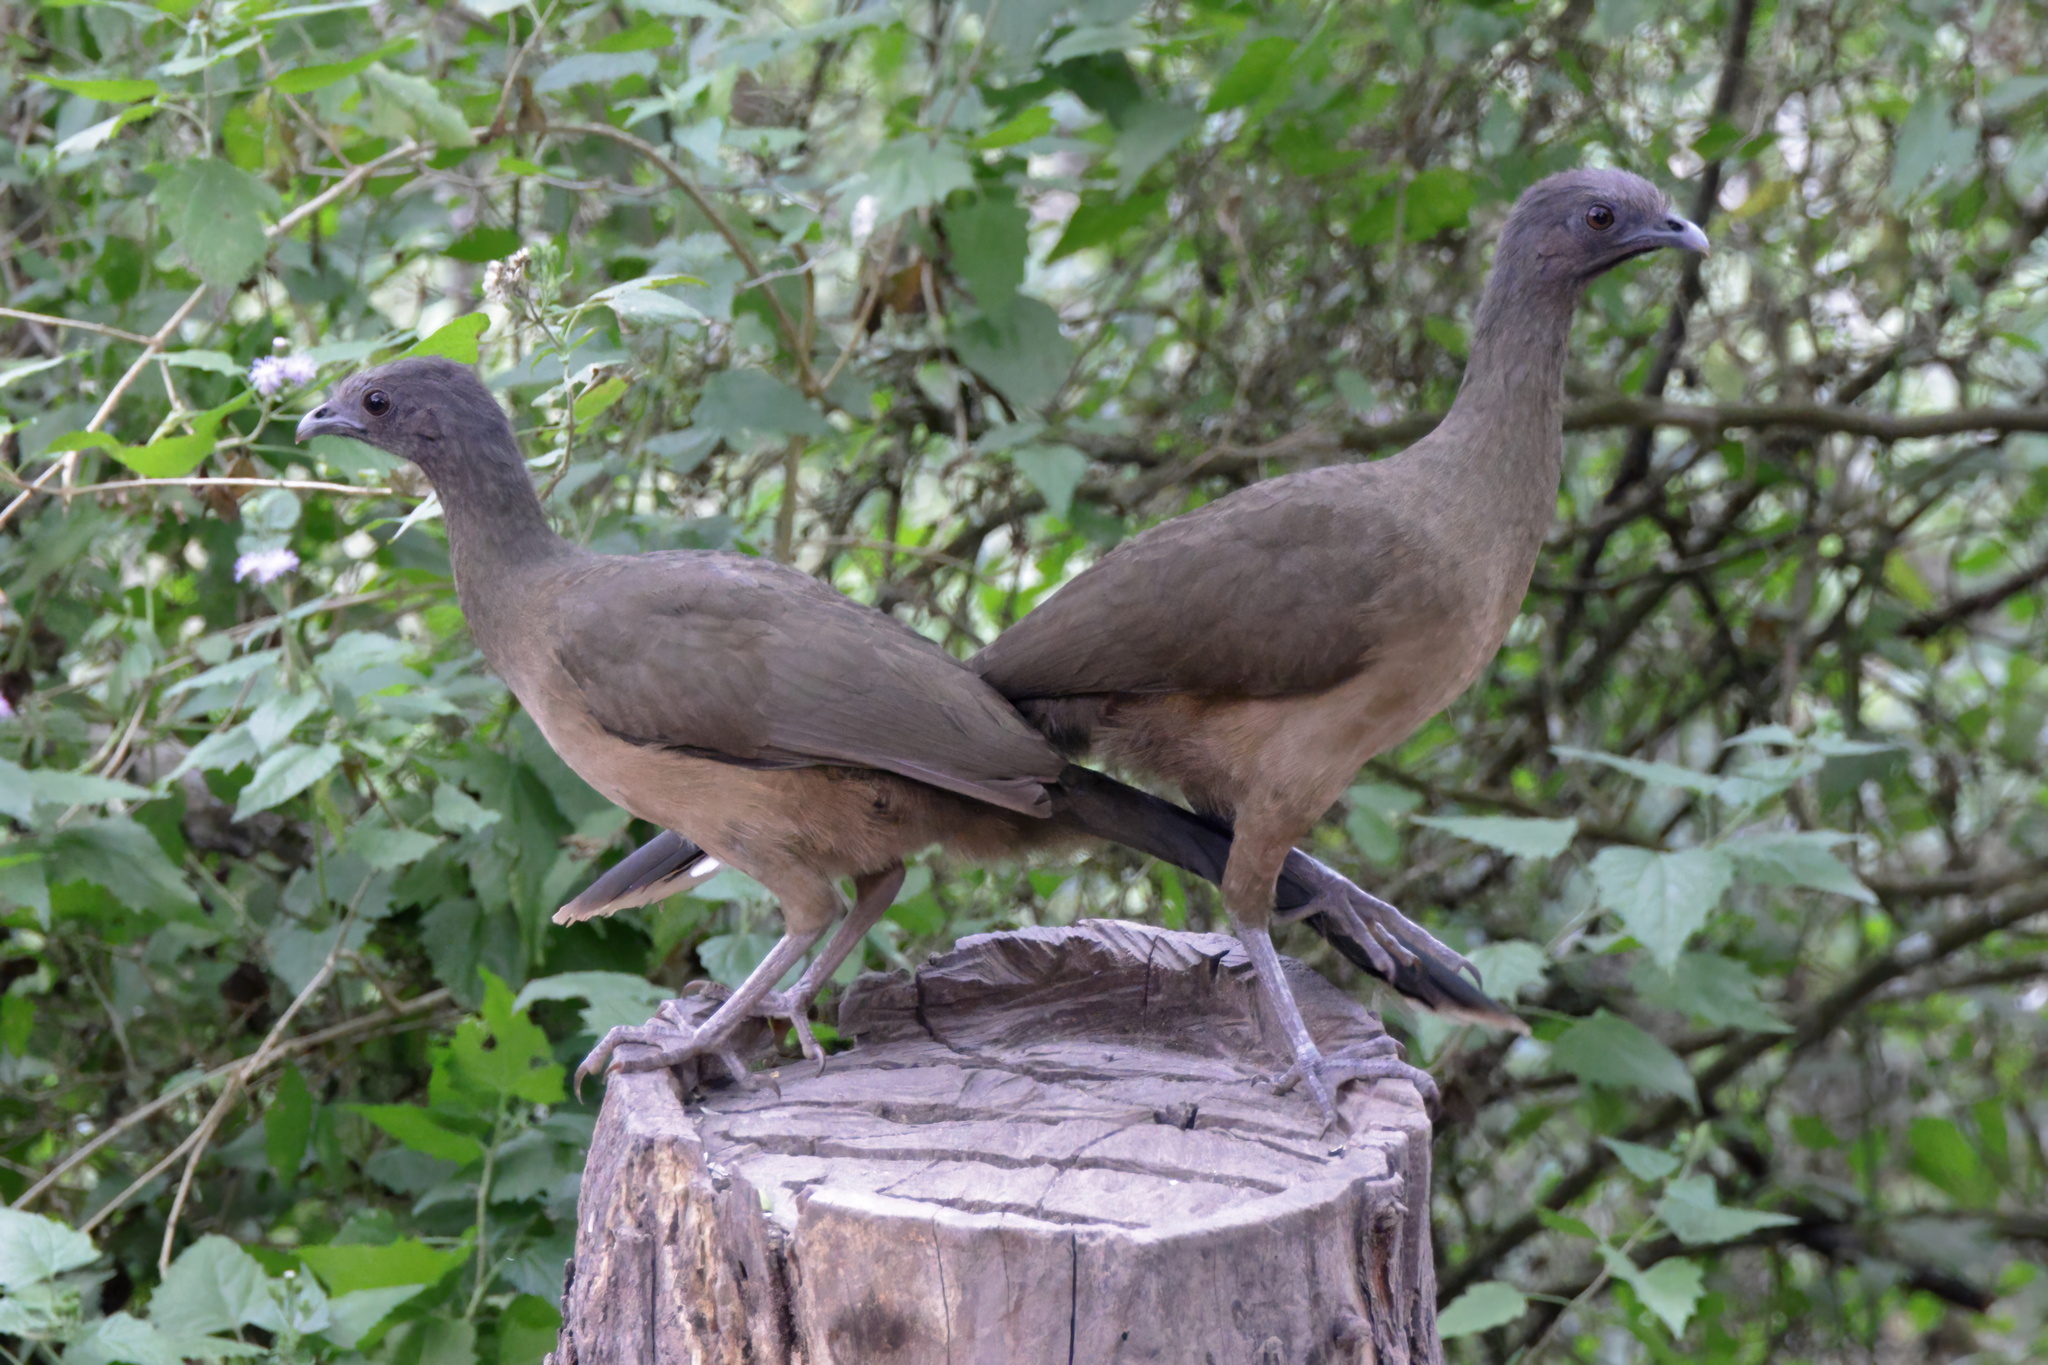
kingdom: Animalia
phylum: Chordata
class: Aves
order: Galliformes
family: Cracidae
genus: Ortalis
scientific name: Ortalis vetula
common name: Plain chachalaca
